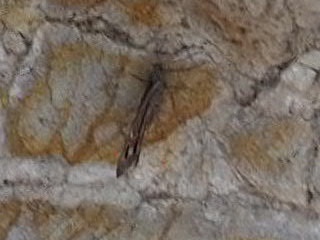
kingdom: Animalia
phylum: Arthropoda
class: Insecta
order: Lepidoptera
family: Nymphalidae
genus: Hipparchia
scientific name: Hipparchia tamadabae
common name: Gran canaria grayling
